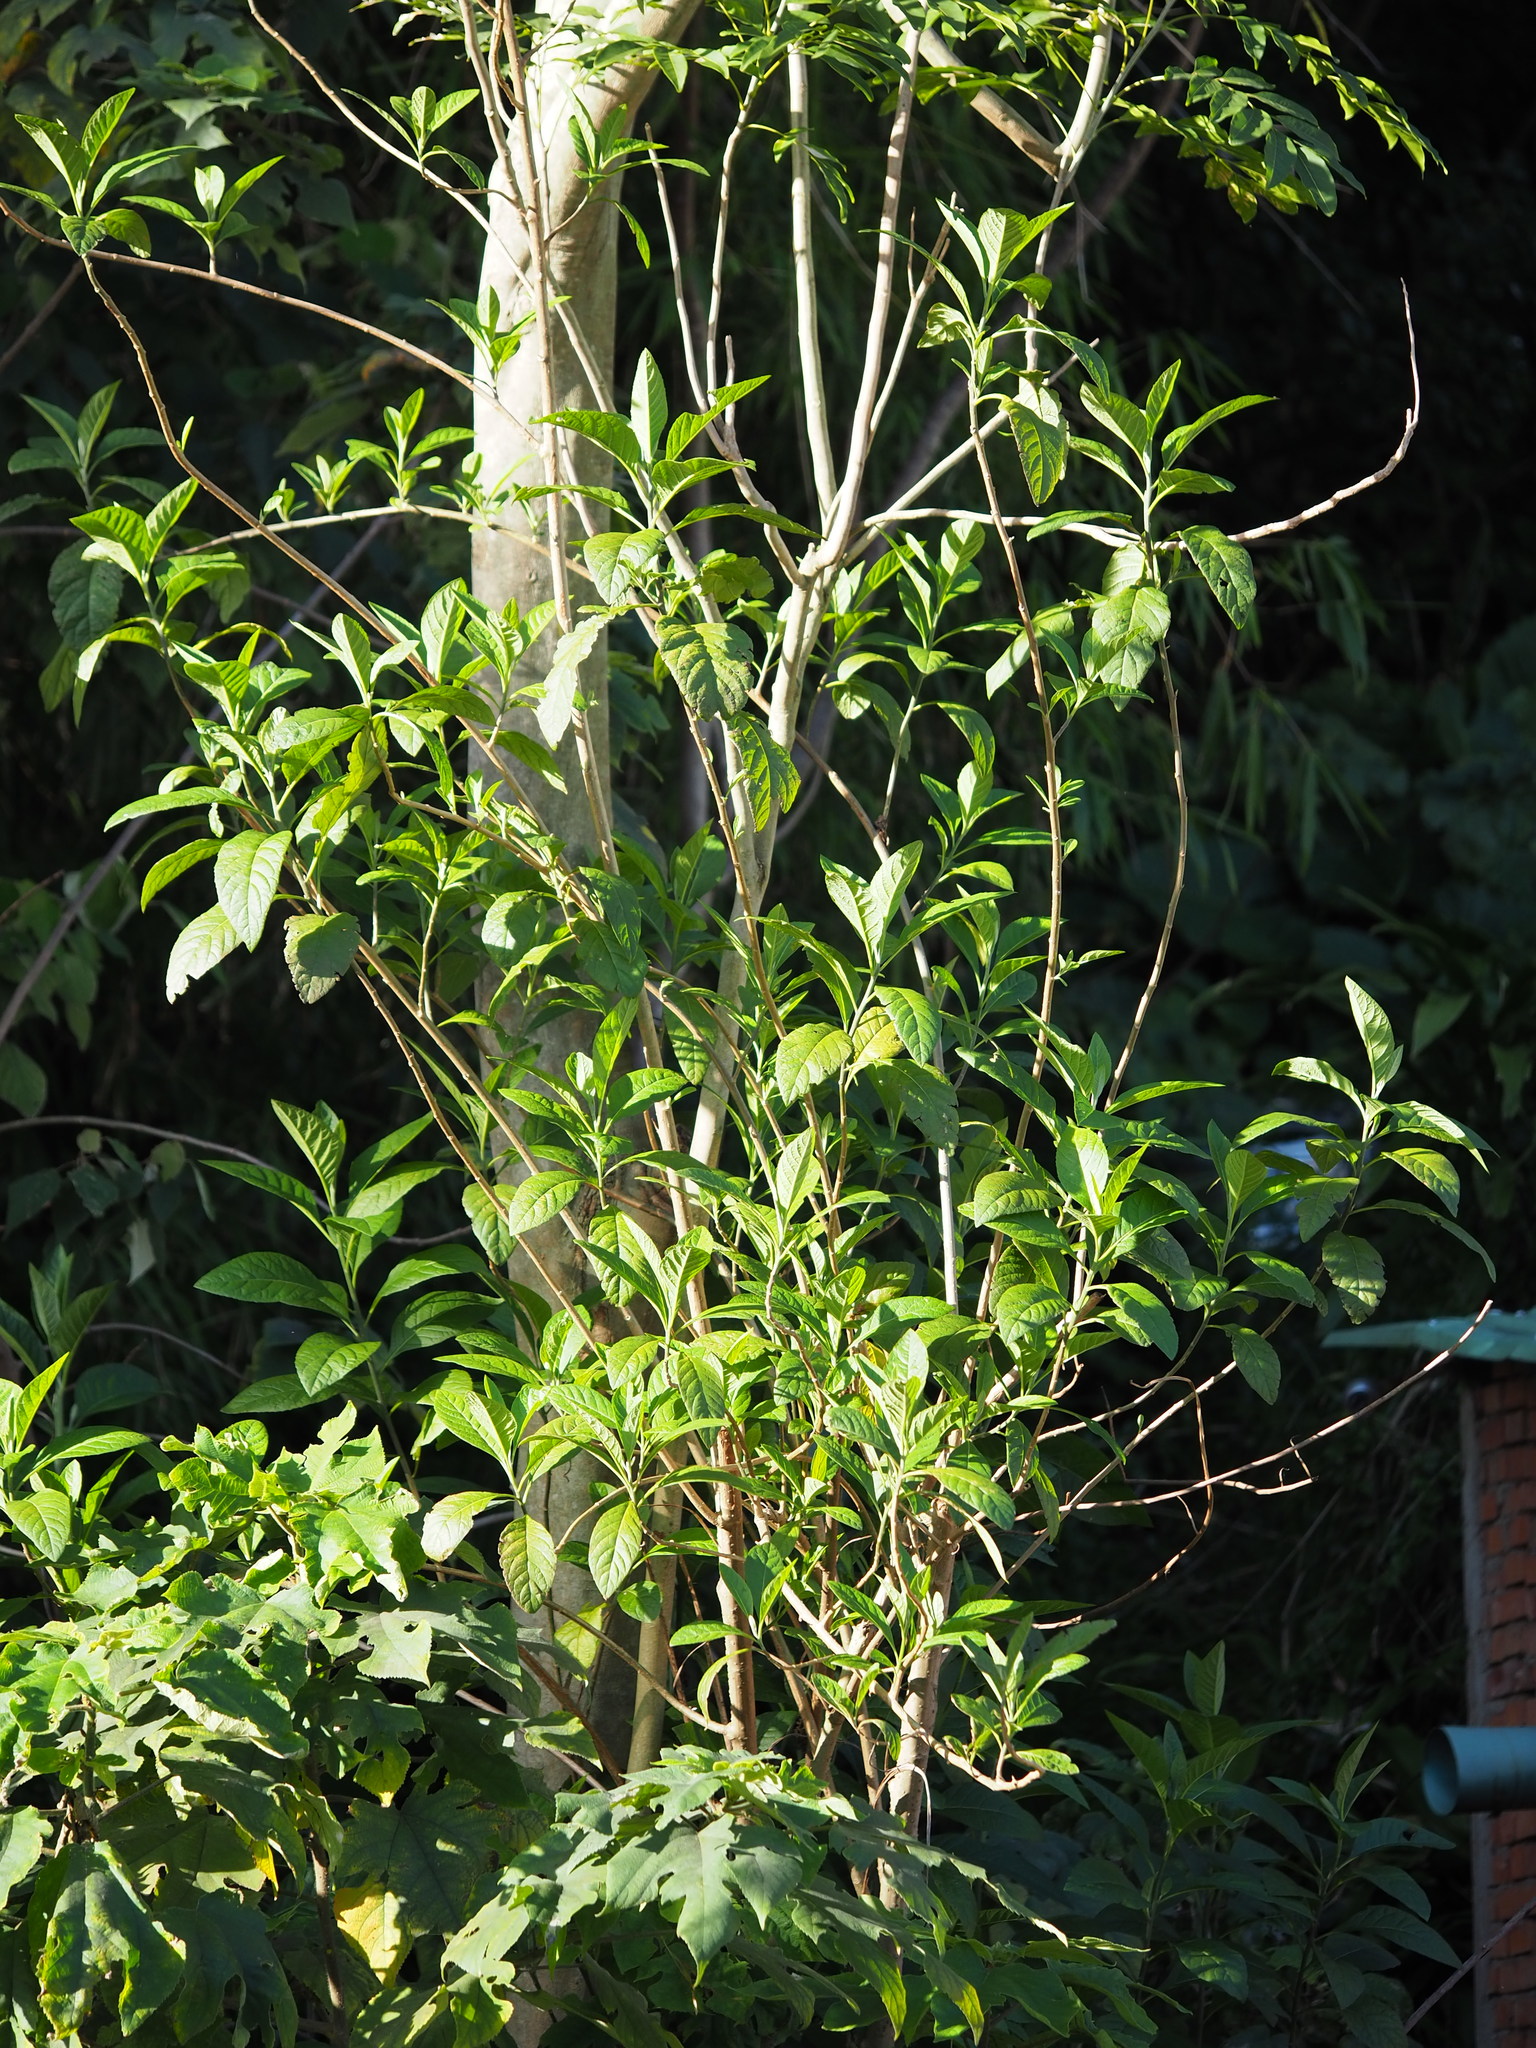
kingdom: Plantae
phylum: Tracheophyta
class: Magnoliopsida
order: Asterales
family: Asteraceae
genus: Gymnanthemum
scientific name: Gymnanthemum amygdalinum
